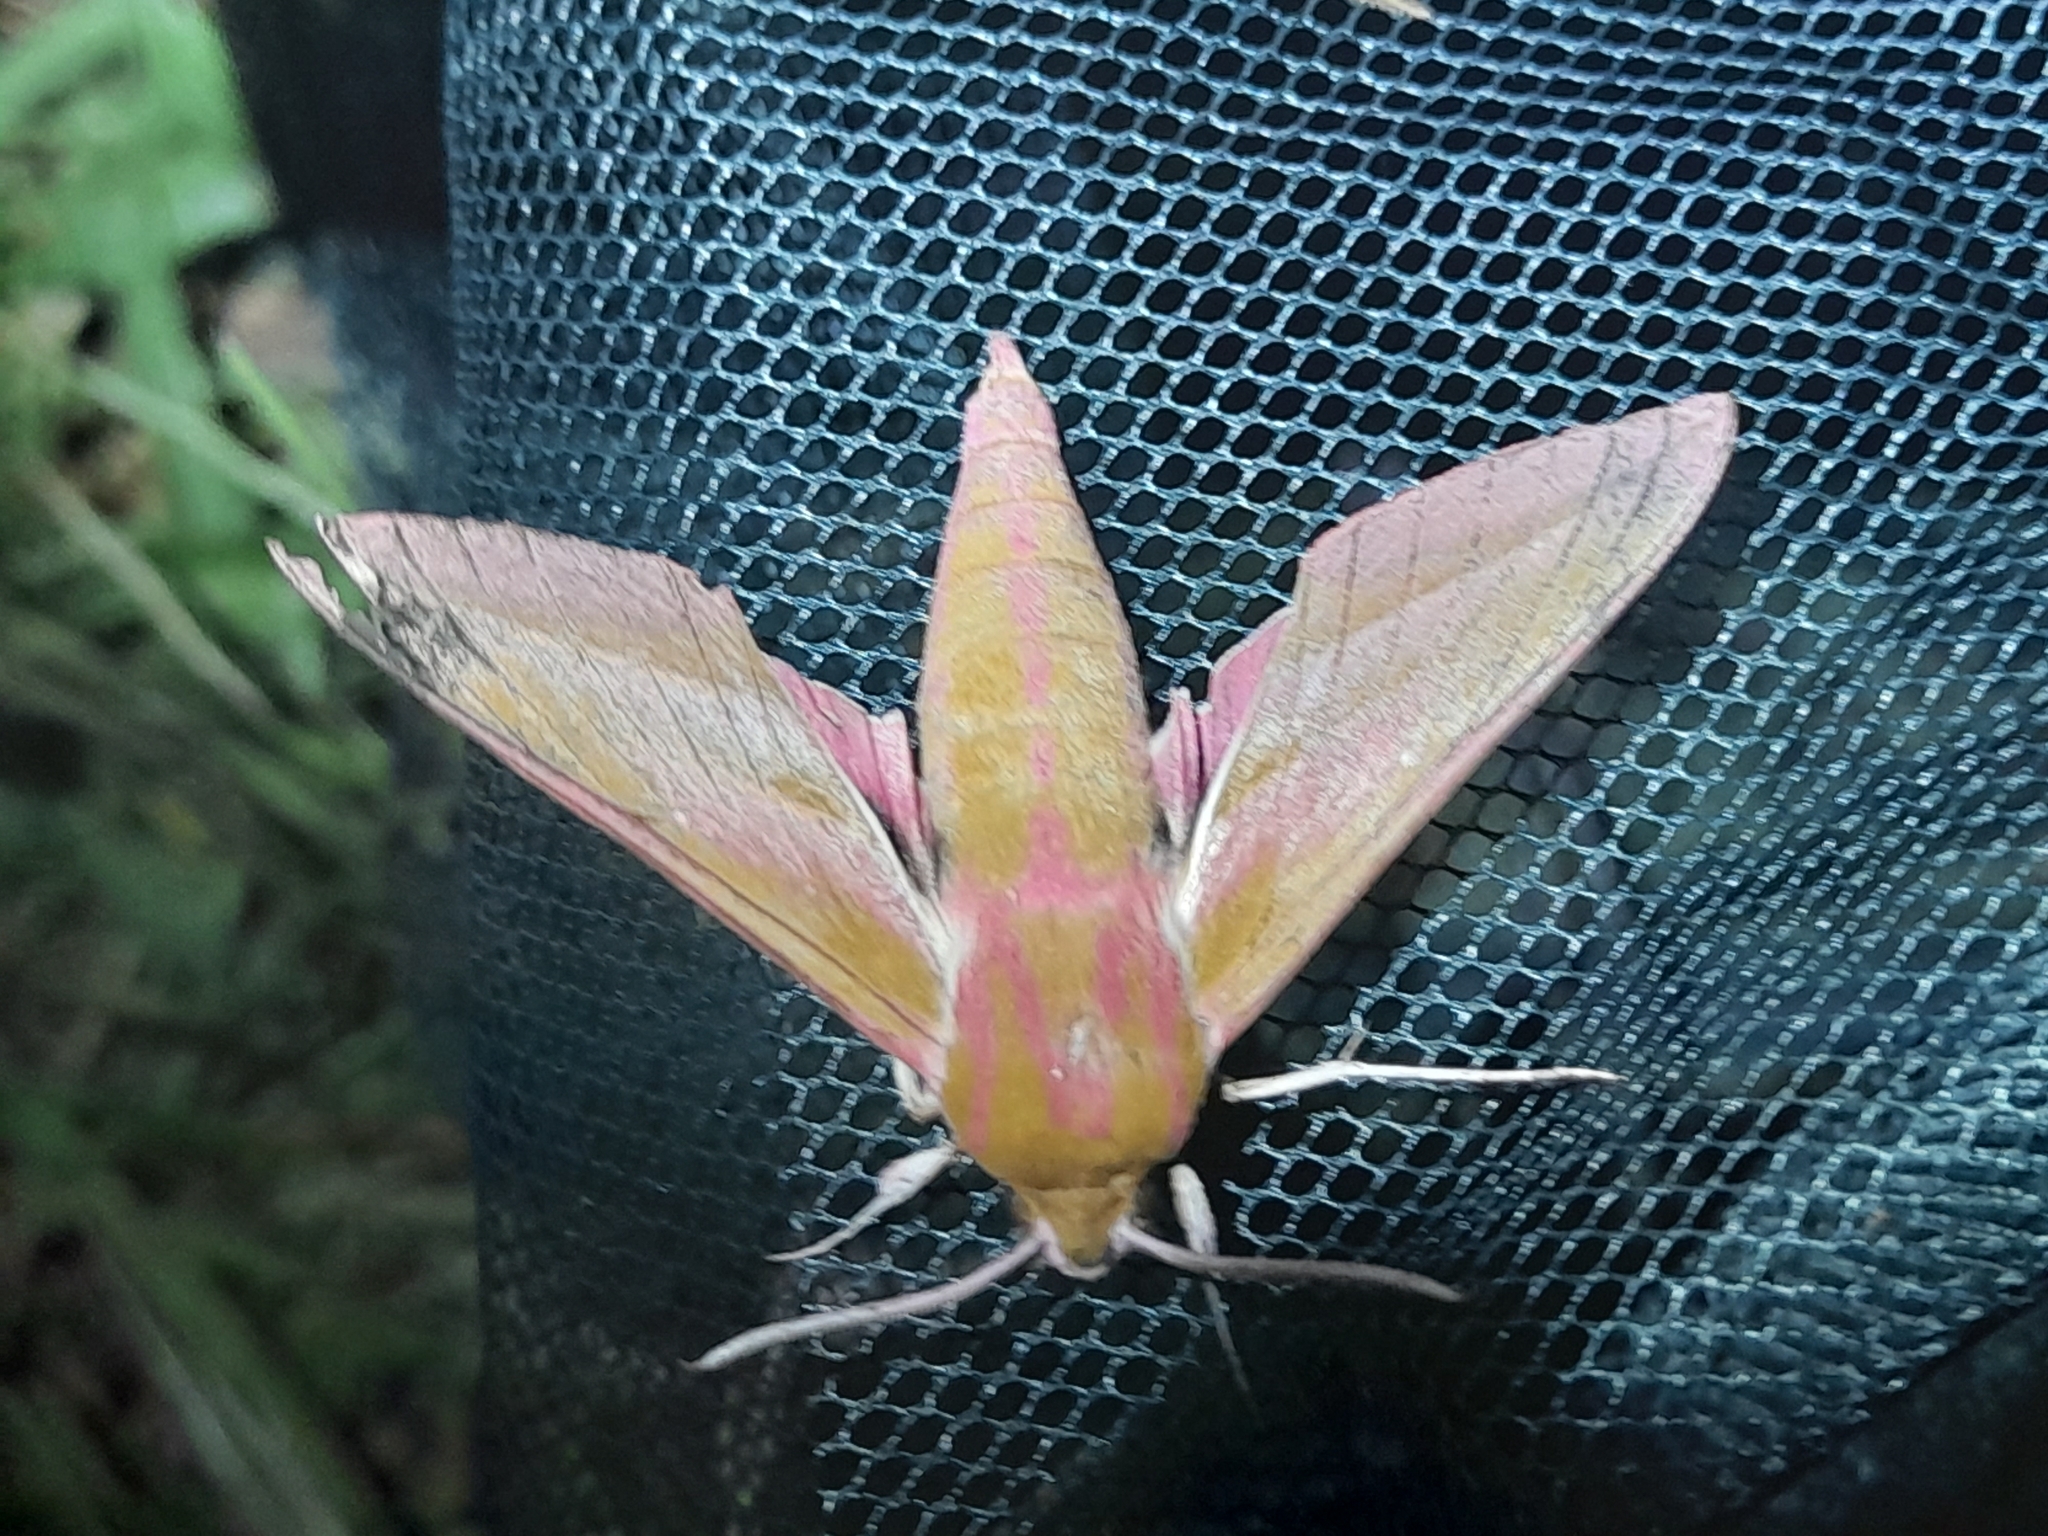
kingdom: Animalia
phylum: Arthropoda
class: Insecta
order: Lepidoptera
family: Sphingidae
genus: Deilephila
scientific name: Deilephila elpenor
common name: Elephant hawk-moth
